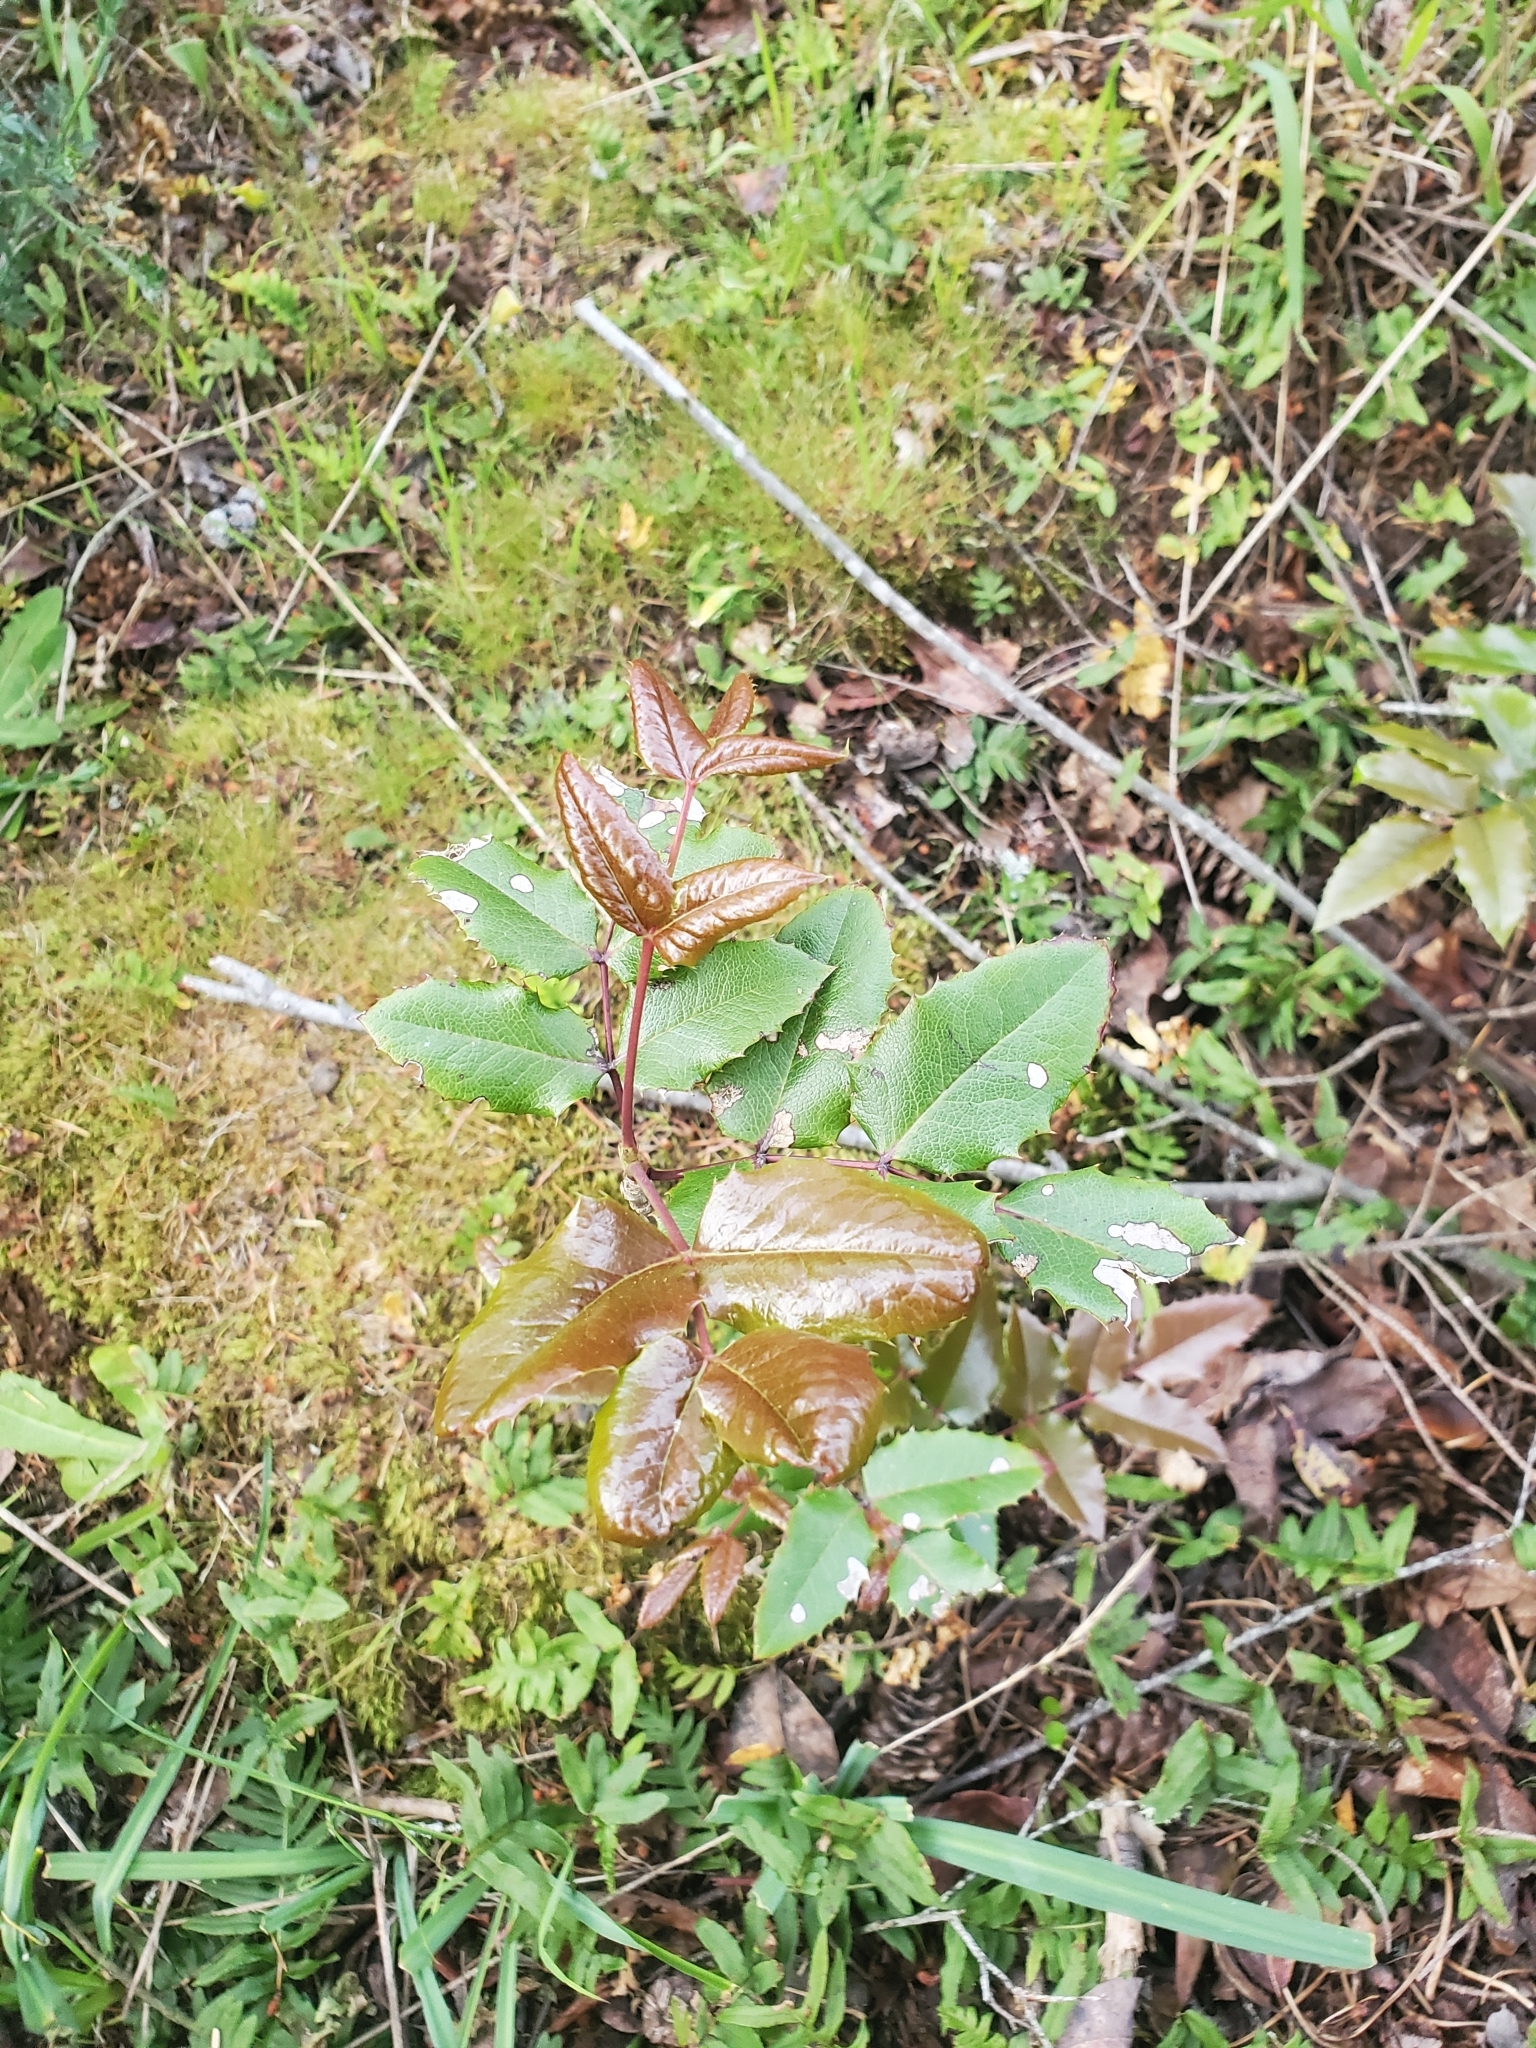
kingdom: Plantae
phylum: Tracheophyta
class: Magnoliopsida
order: Ranunculales
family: Berberidaceae
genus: Mahonia
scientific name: Mahonia aquifolium
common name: Oregon-grape
